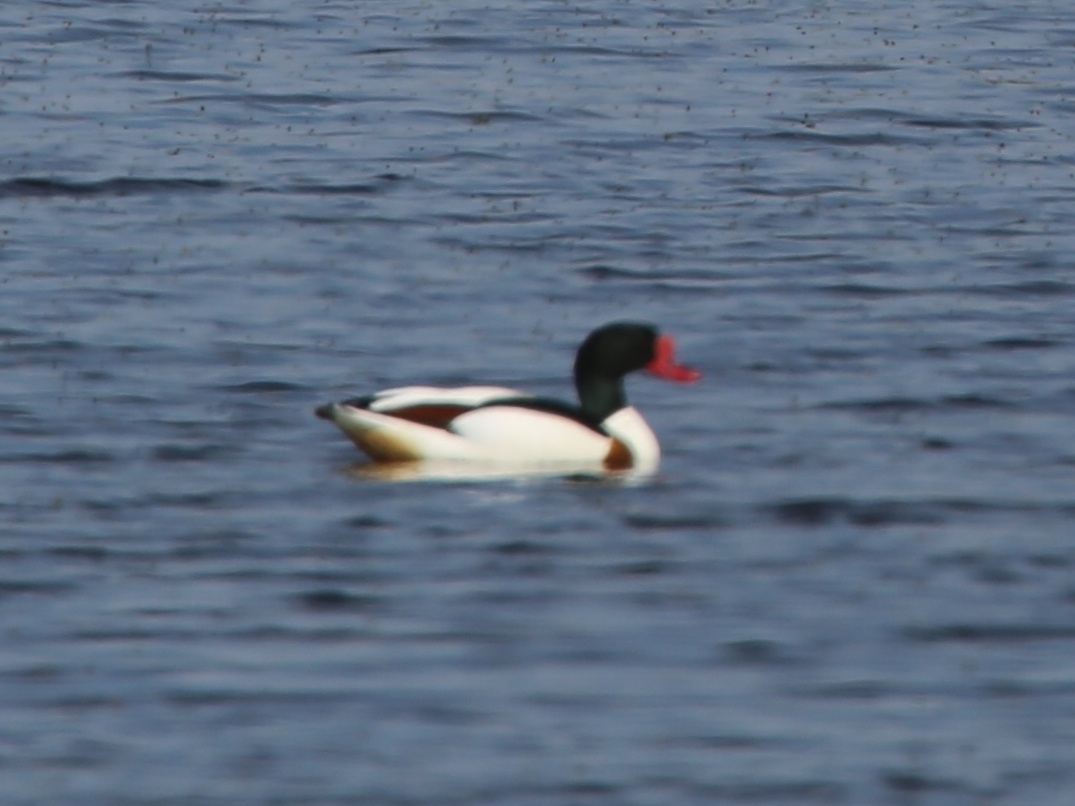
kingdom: Animalia
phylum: Chordata
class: Aves
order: Anseriformes
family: Anatidae
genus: Tadorna
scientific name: Tadorna tadorna
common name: Common shelduck
